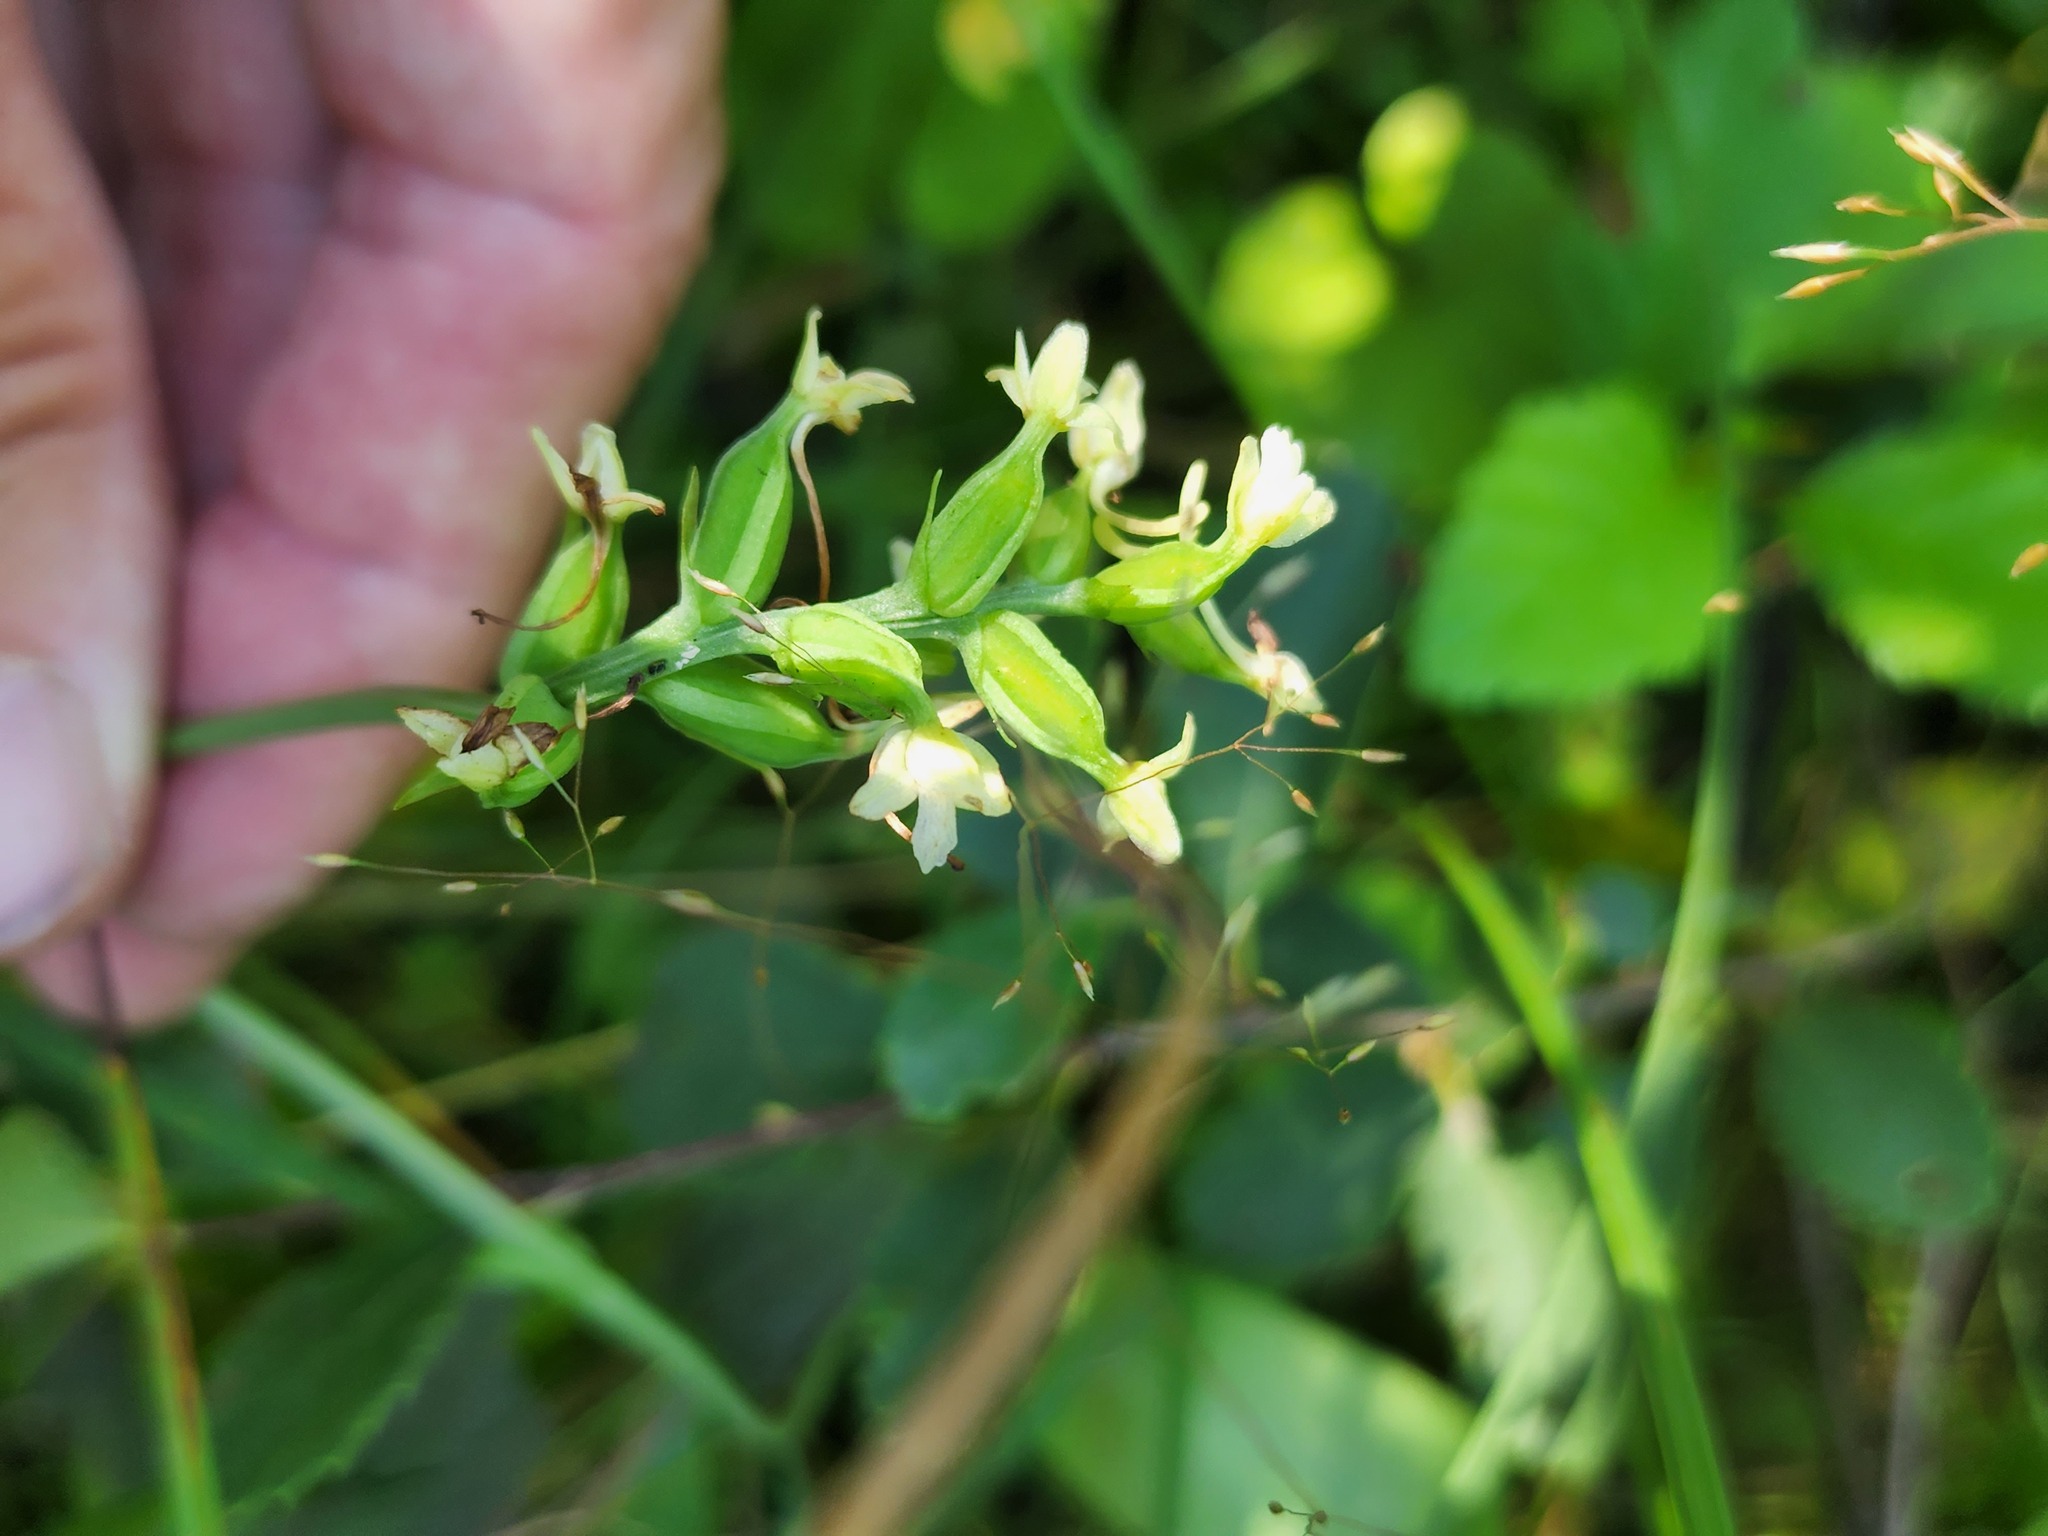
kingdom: Plantae
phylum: Tracheophyta
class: Liliopsida
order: Asparagales
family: Orchidaceae
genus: Platanthera
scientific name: Platanthera clavellata
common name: Club-spur orchid
